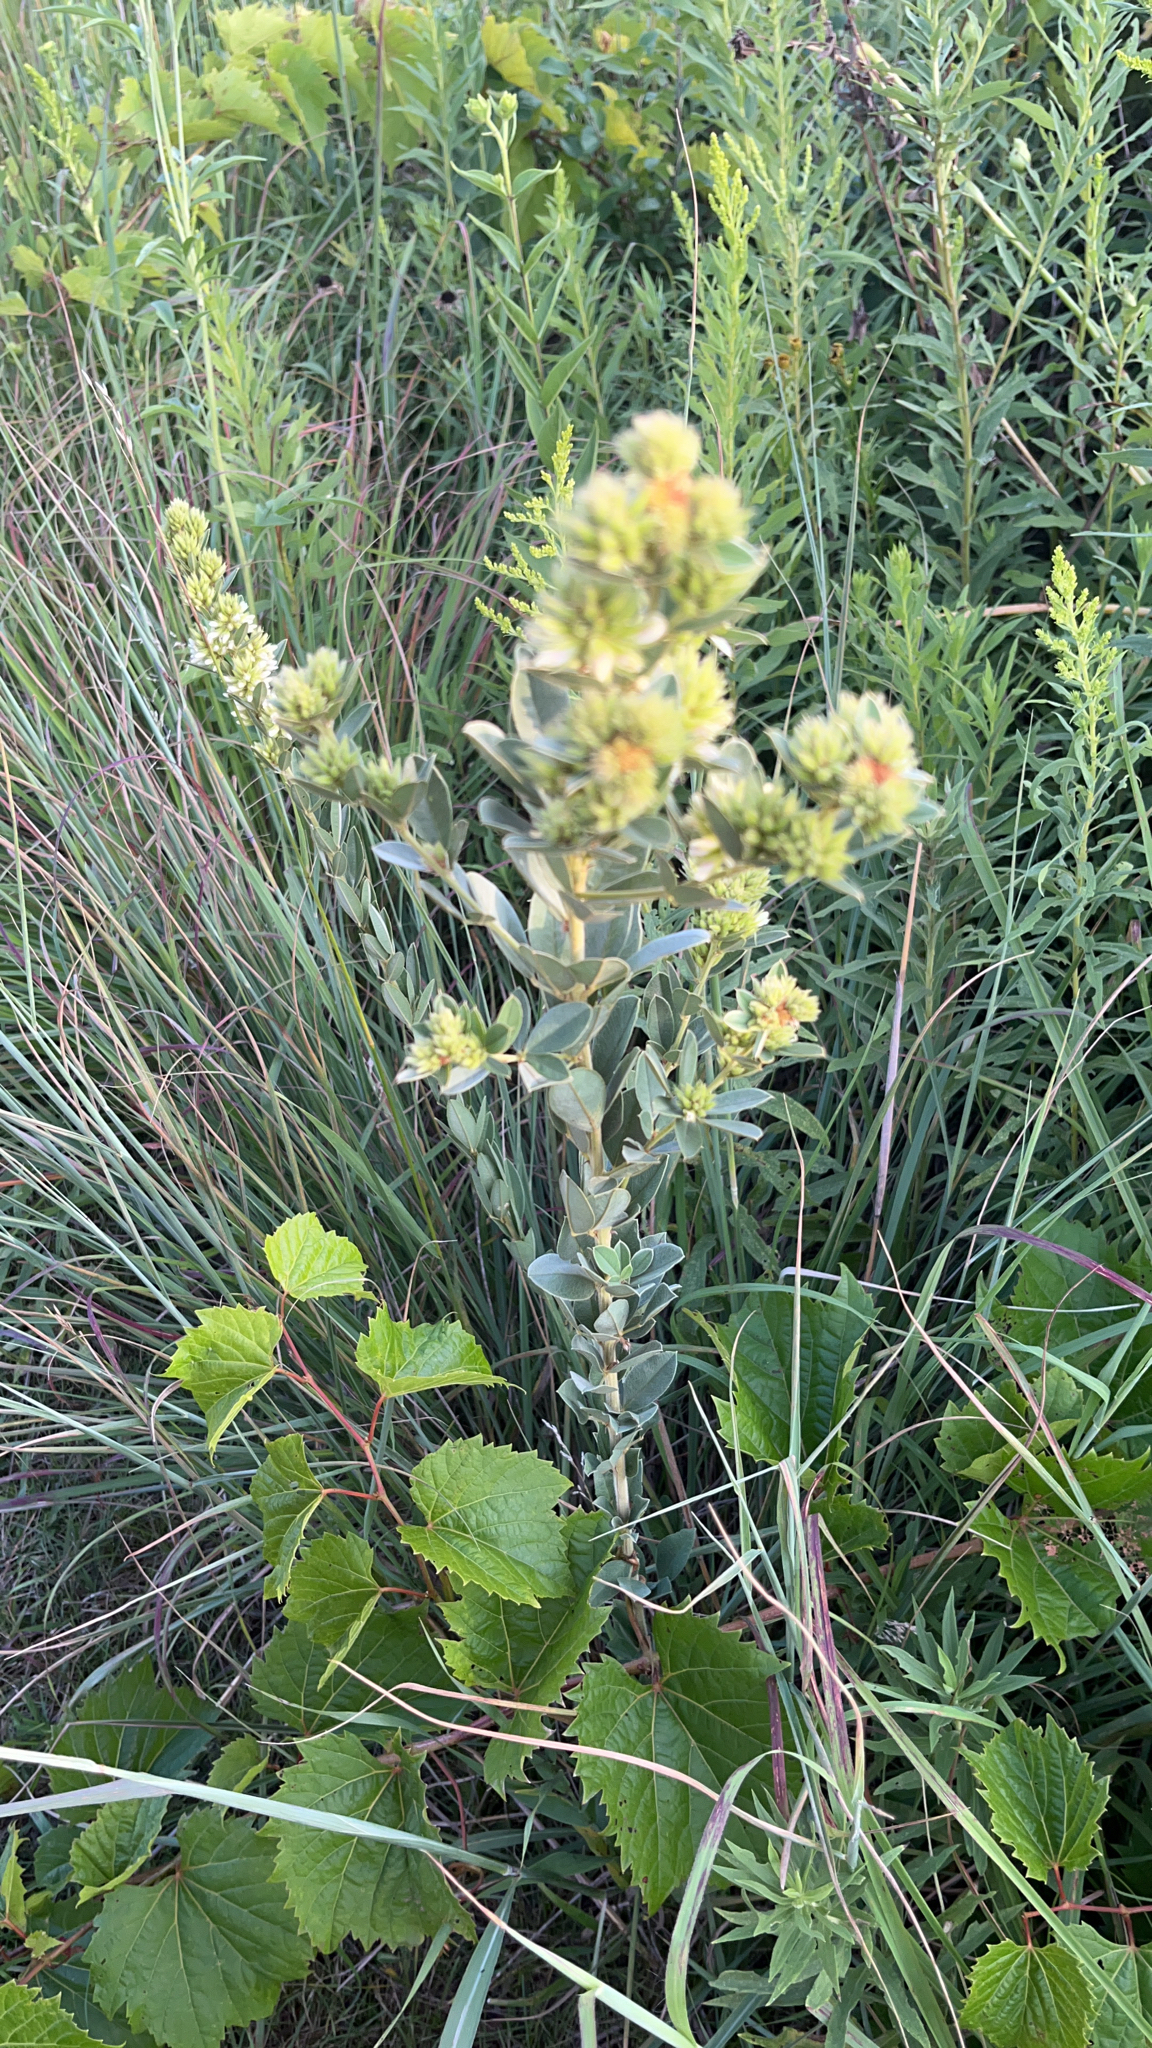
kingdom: Plantae
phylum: Tracheophyta
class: Magnoliopsida
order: Fabales
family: Fabaceae
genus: Lespedeza
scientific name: Lespedeza capitata
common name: Dusty clover
